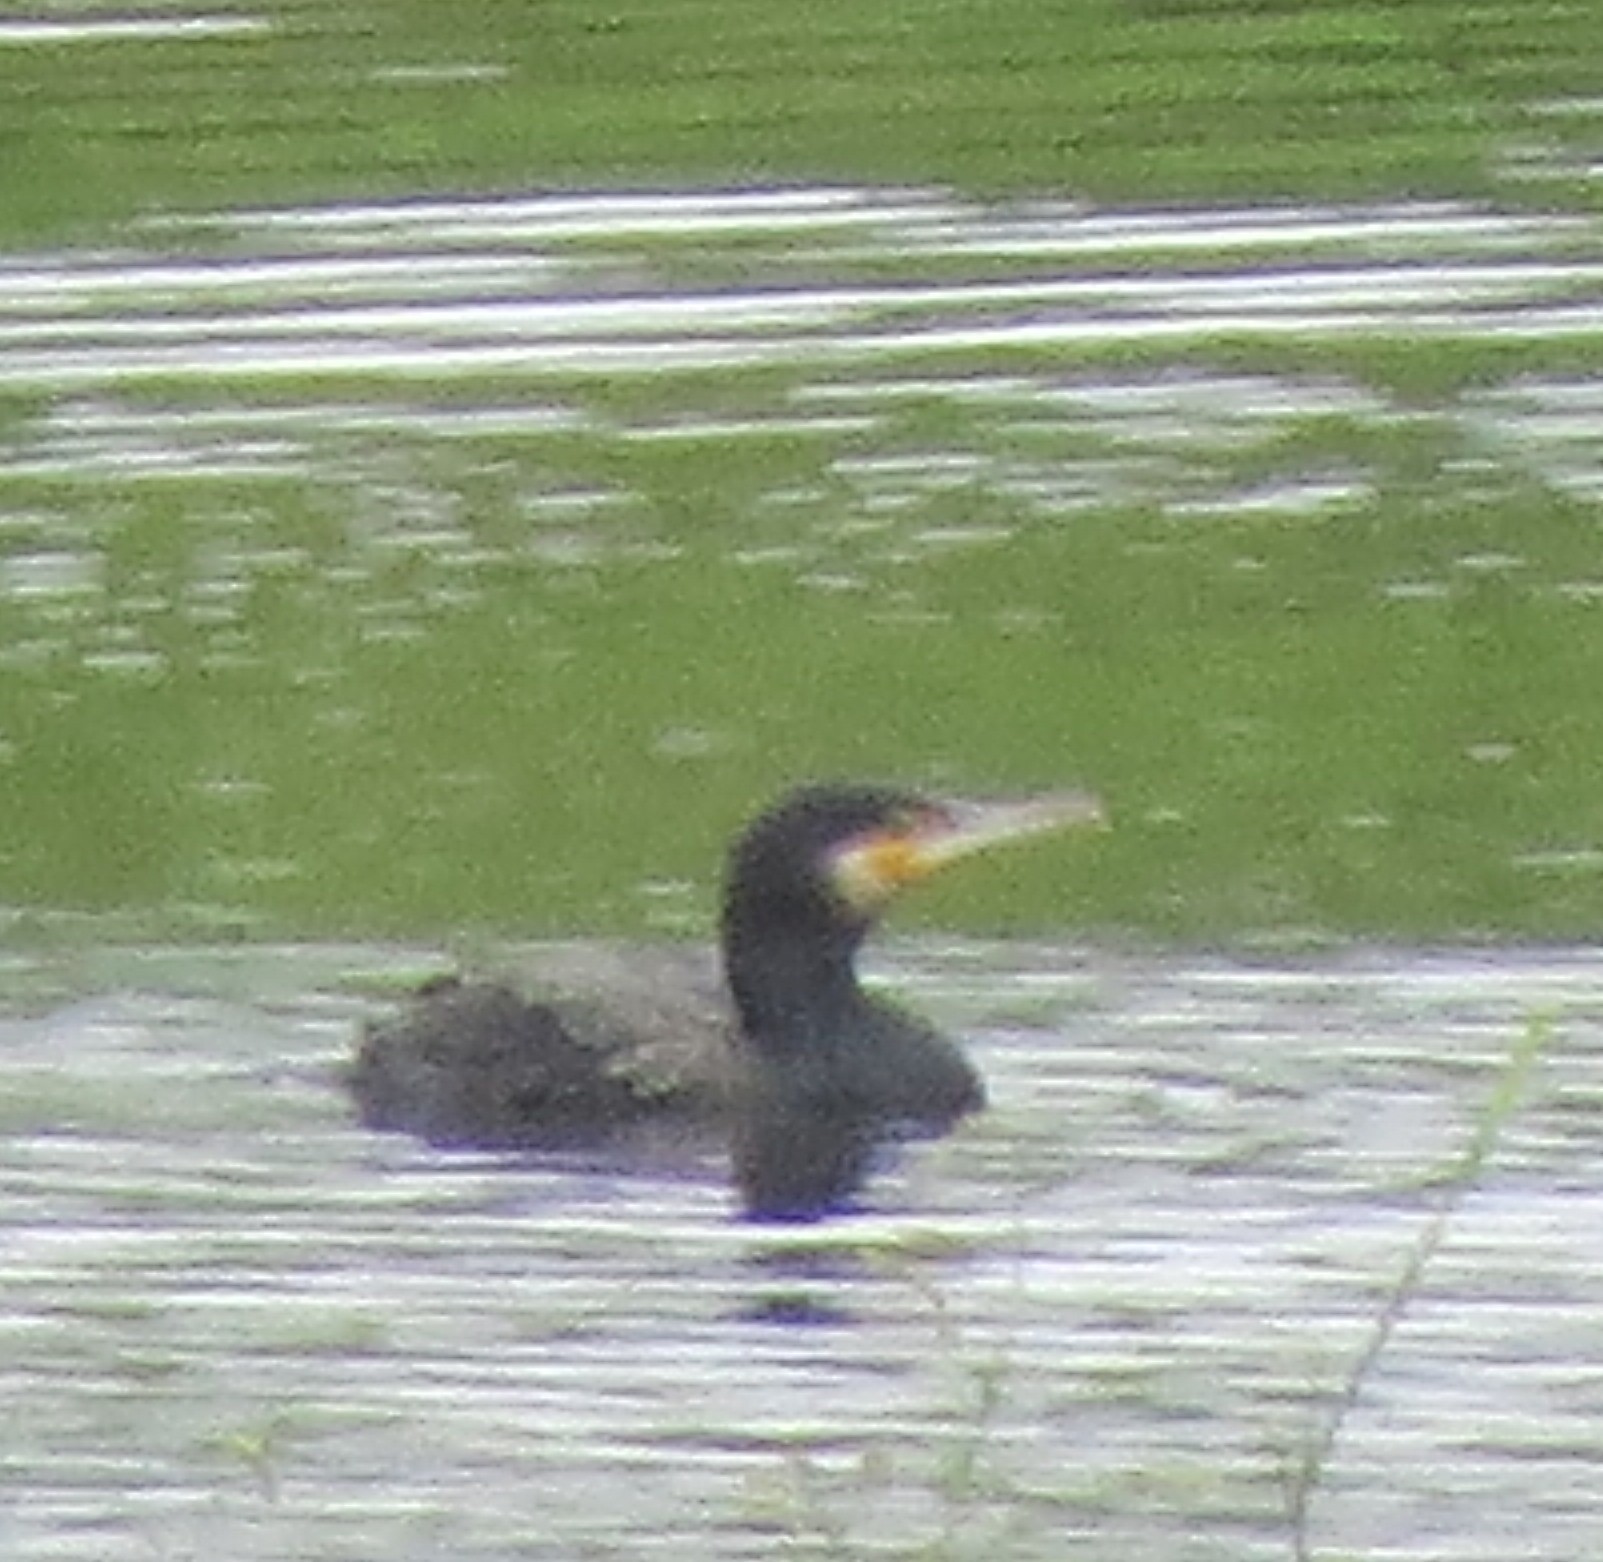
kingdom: Animalia
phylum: Chordata
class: Aves
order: Suliformes
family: Phalacrocoracidae
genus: Phalacrocorax
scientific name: Phalacrocorax carbo
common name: Great cormorant
